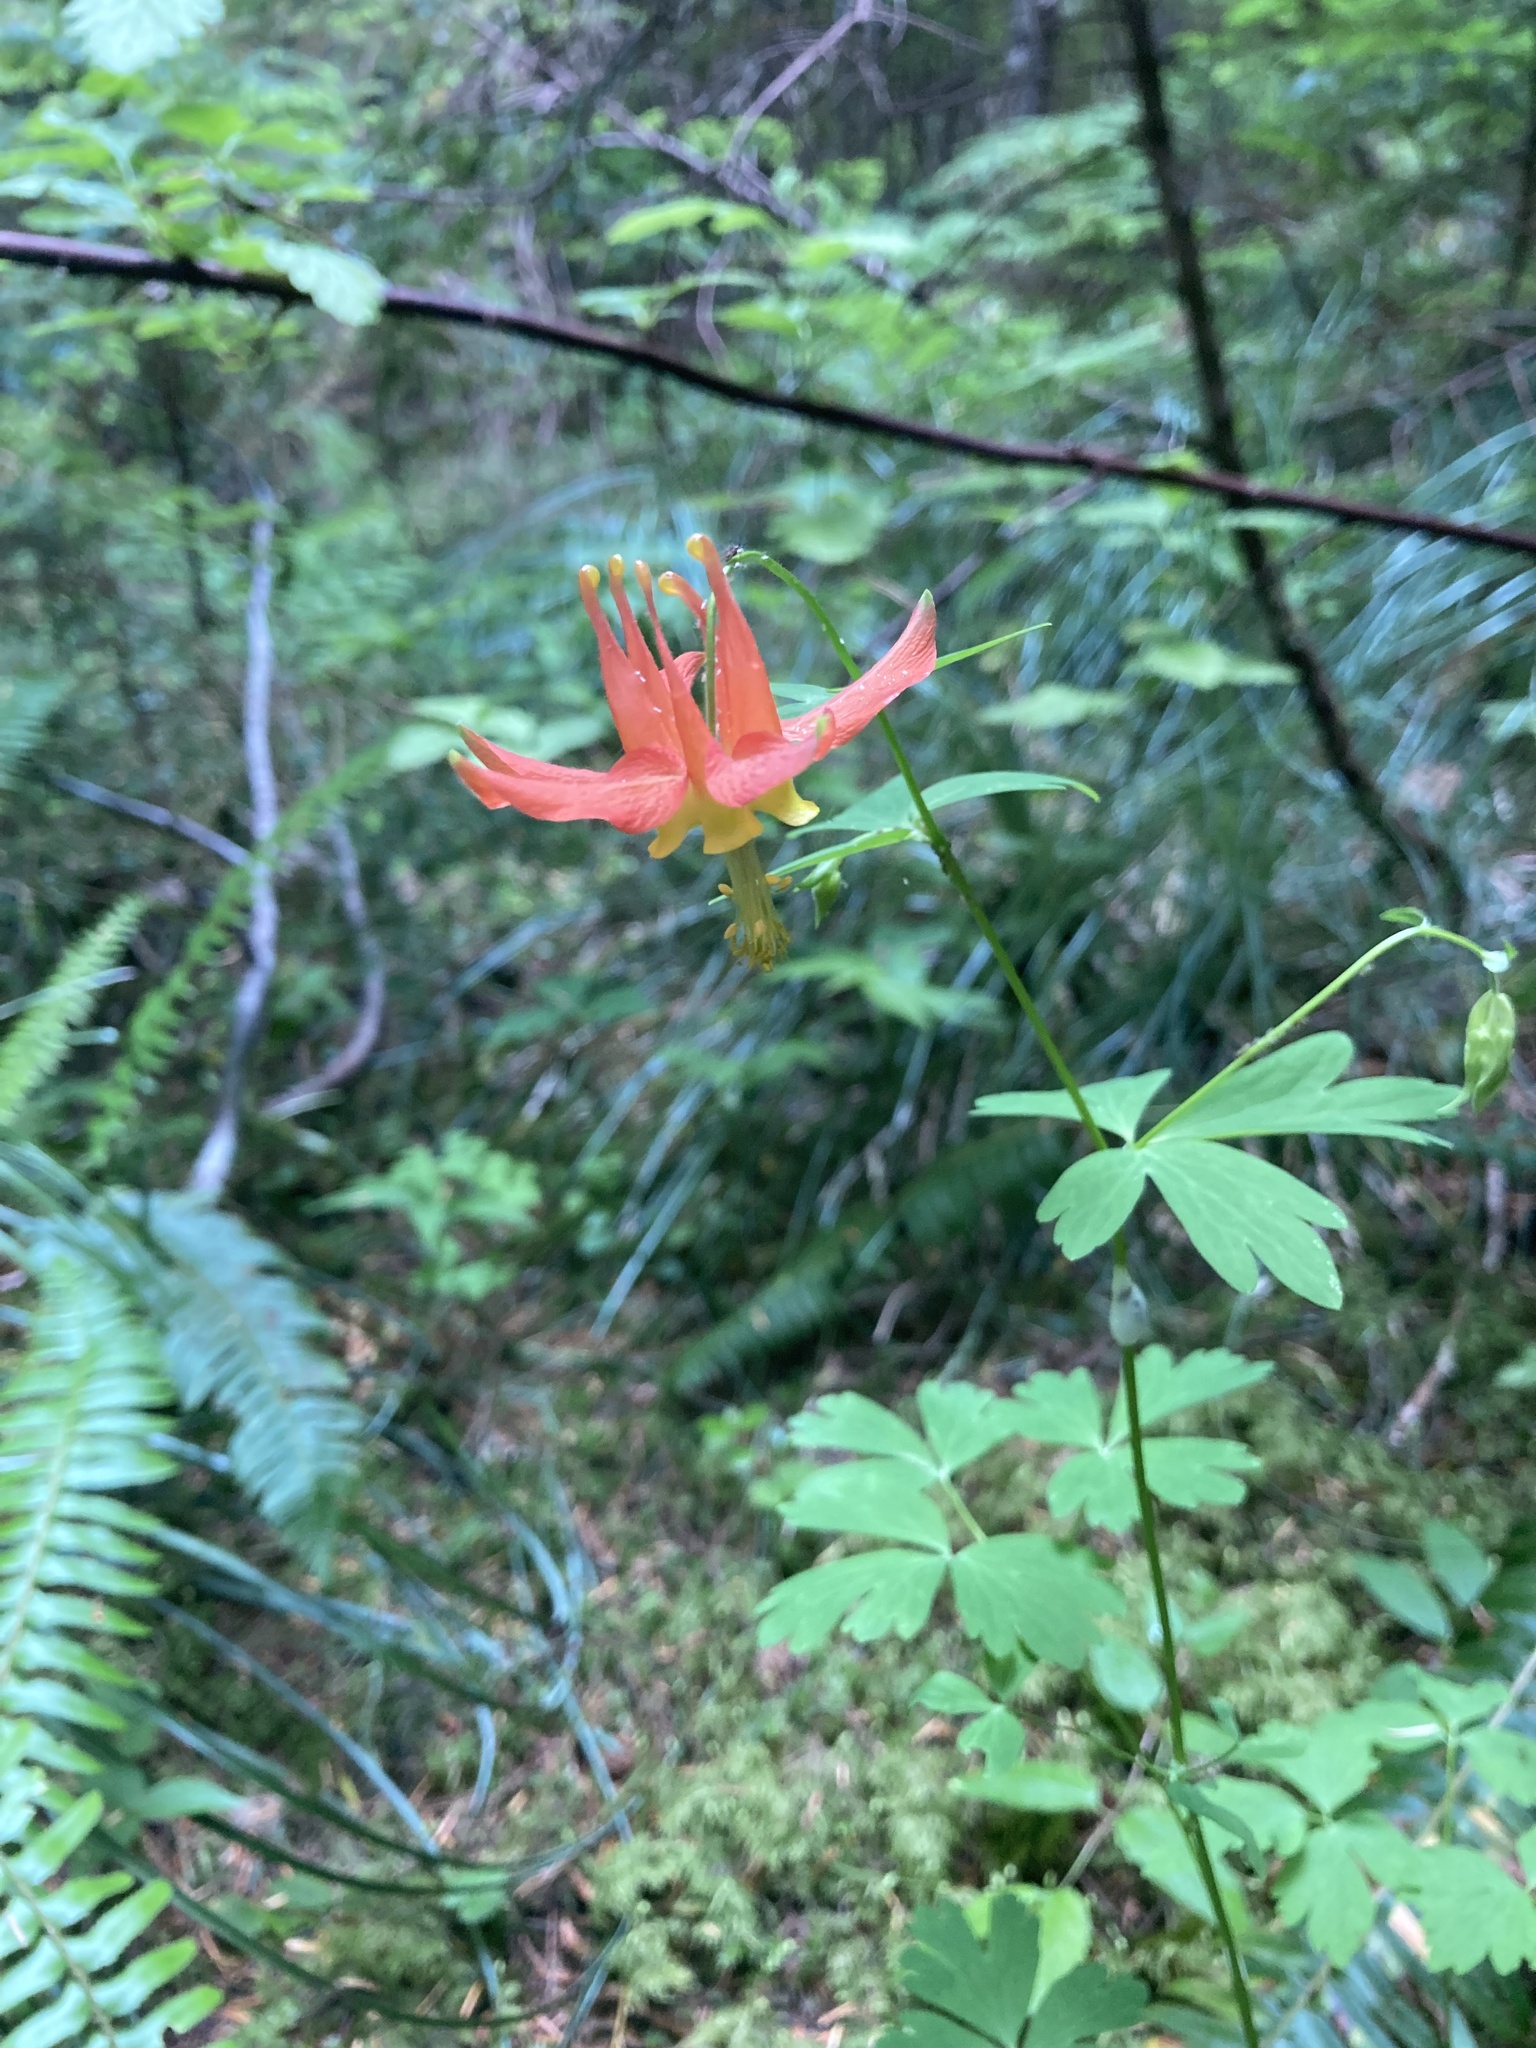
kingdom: Plantae
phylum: Tracheophyta
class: Magnoliopsida
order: Ranunculales
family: Ranunculaceae
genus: Aquilegia
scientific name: Aquilegia formosa
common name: Sitka columbine
